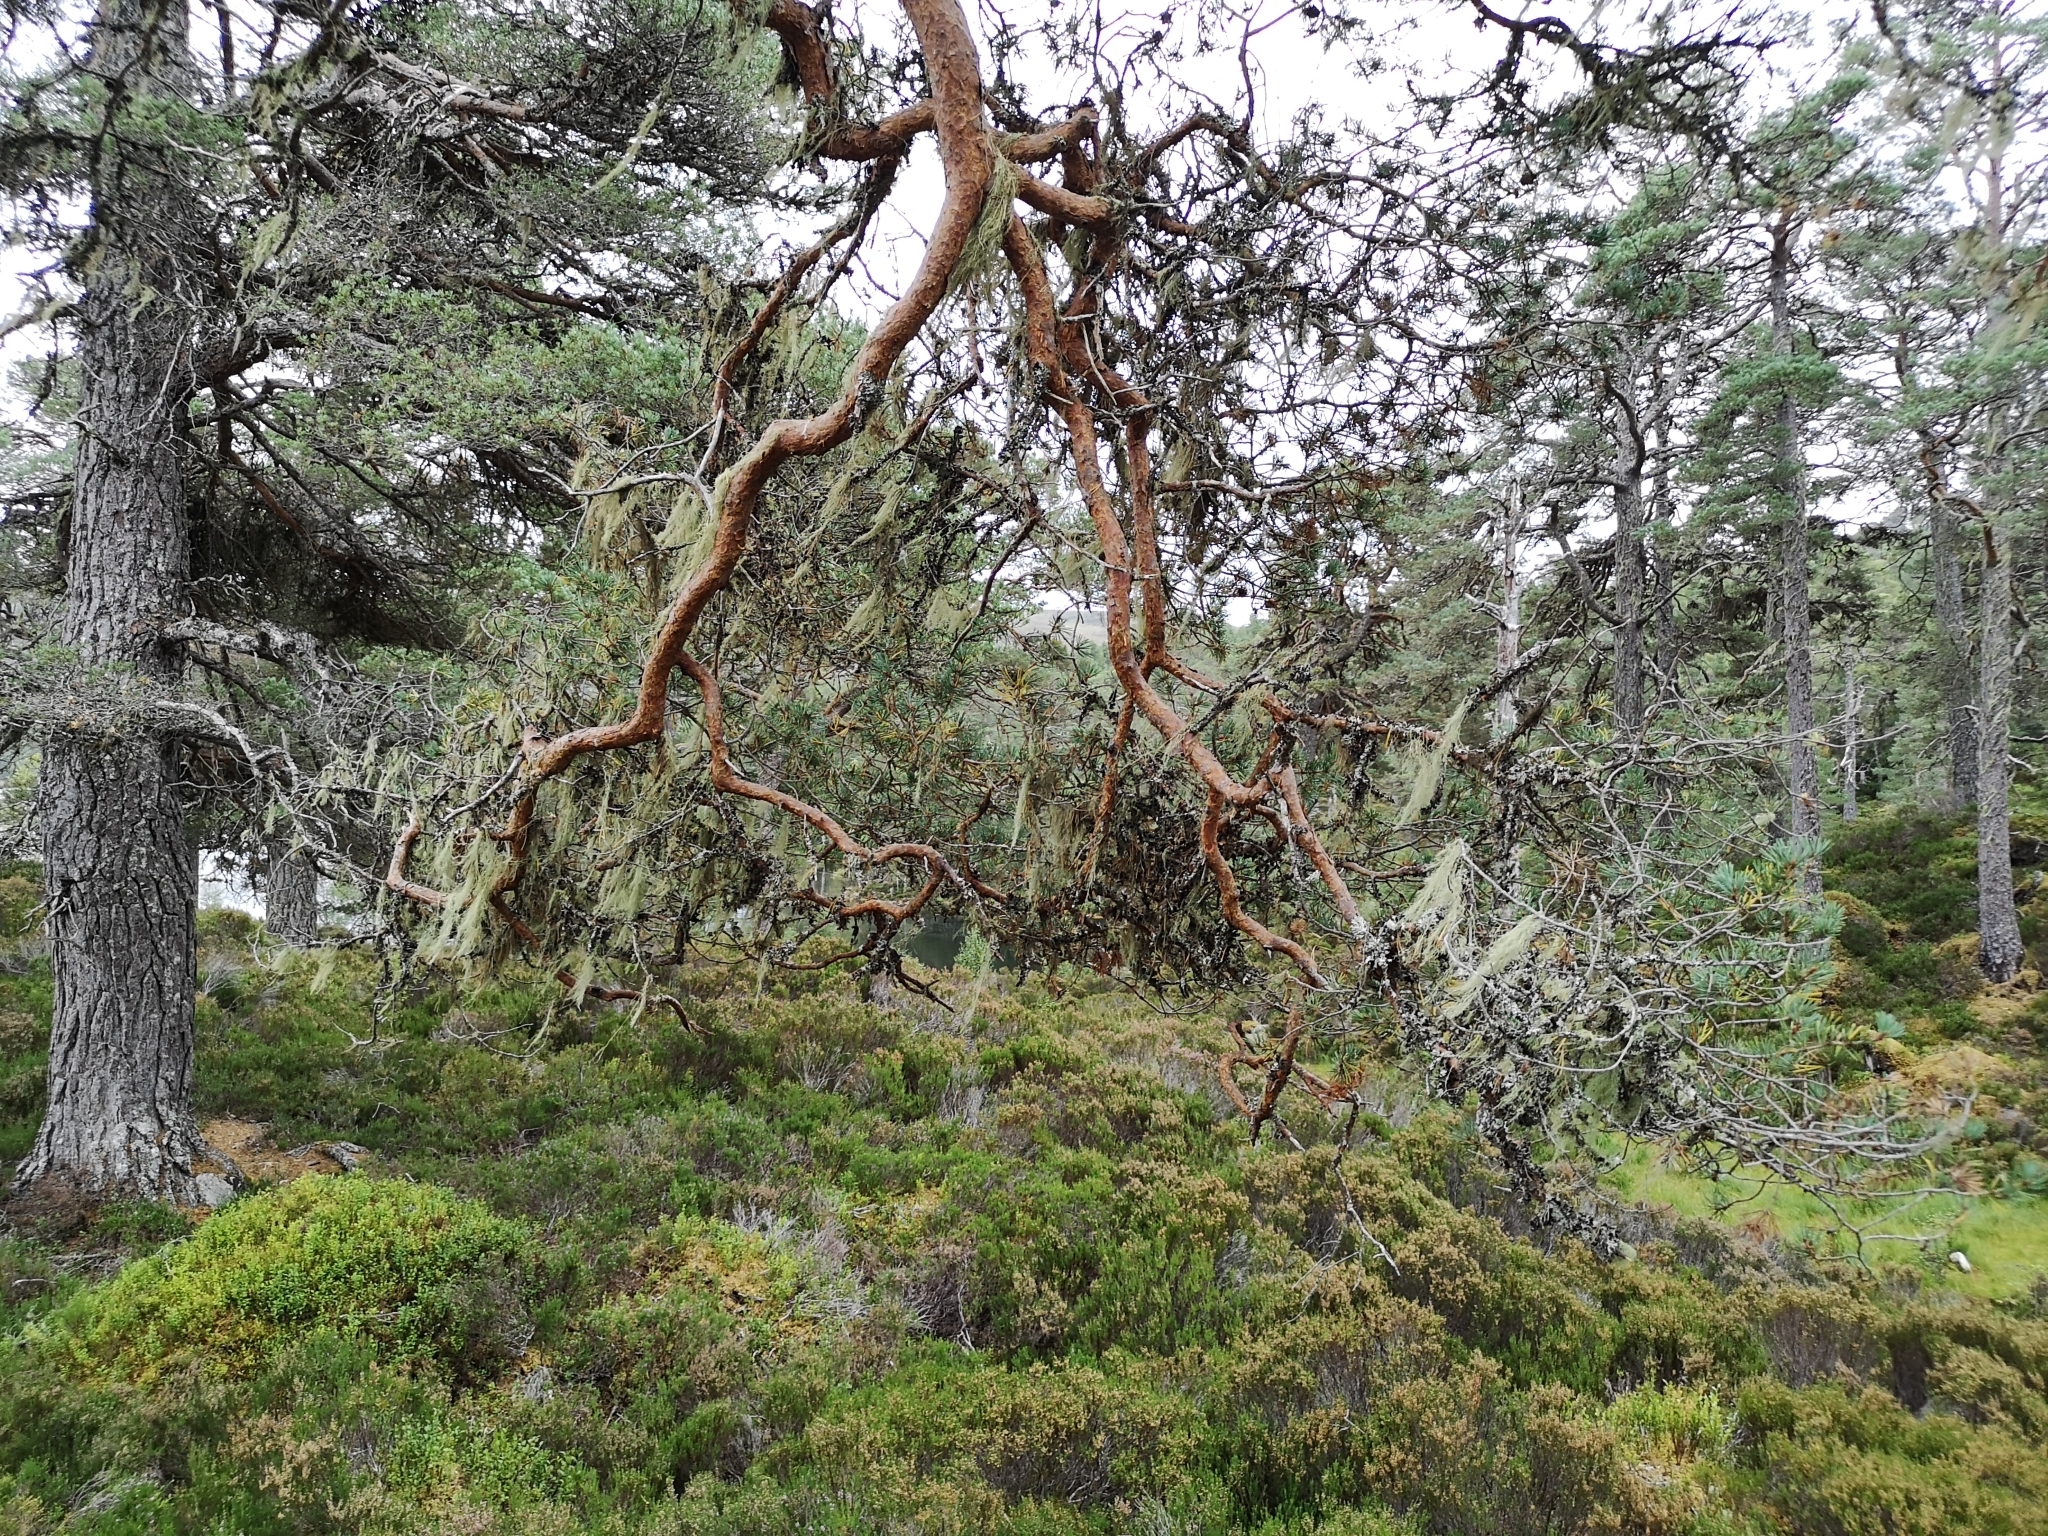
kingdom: Plantae
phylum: Tracheophyta
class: Pinopsida
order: Pinales
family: Pinaceae
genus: Pinus
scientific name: Pinus sylvestris
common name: Scots pine
